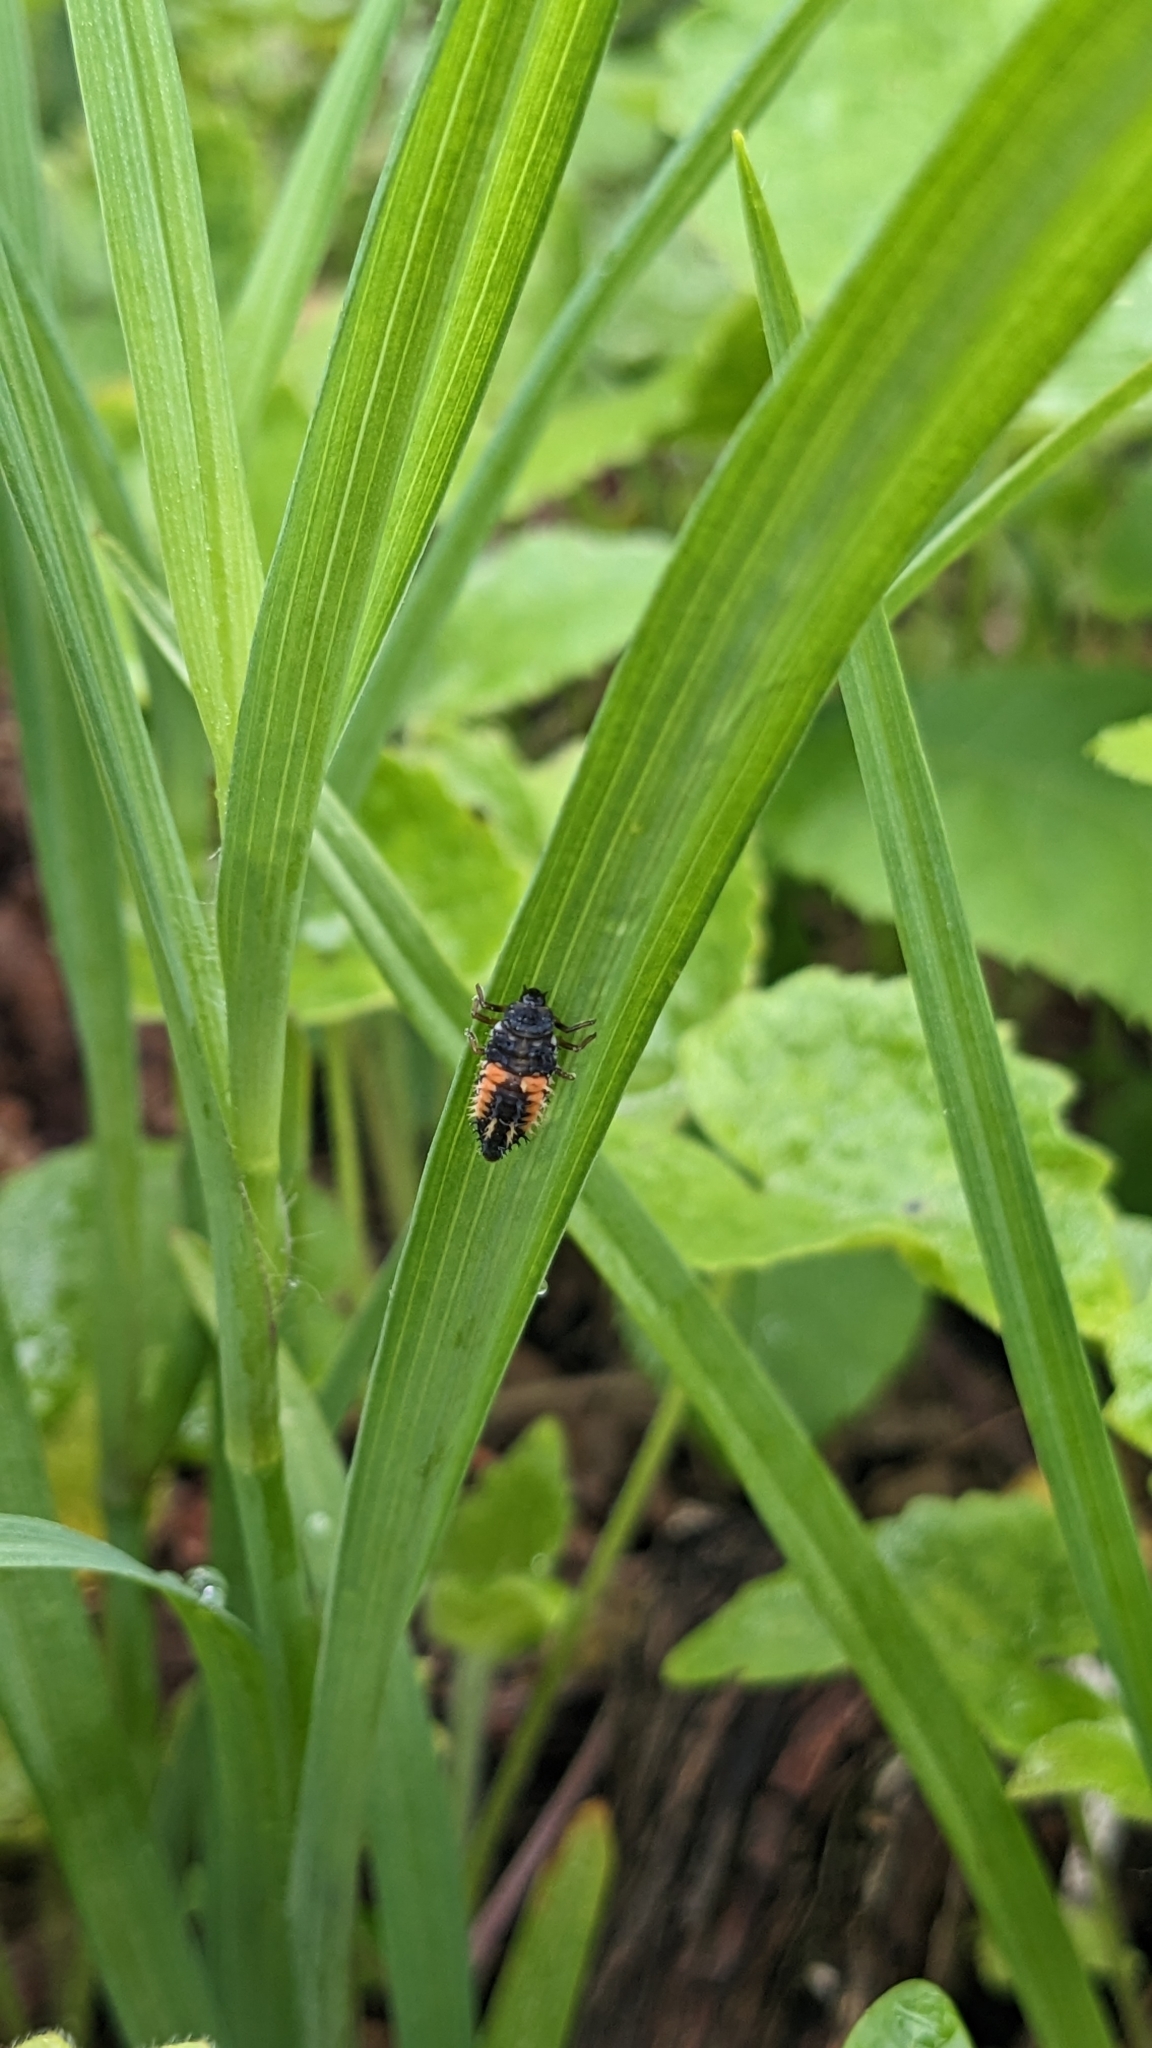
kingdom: Animalia
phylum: Arthropoda
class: Insecta
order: Coleoptera
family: Coccinellidae
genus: Harmonia
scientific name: Harmonia axyridis
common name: Harlequin ladybird
